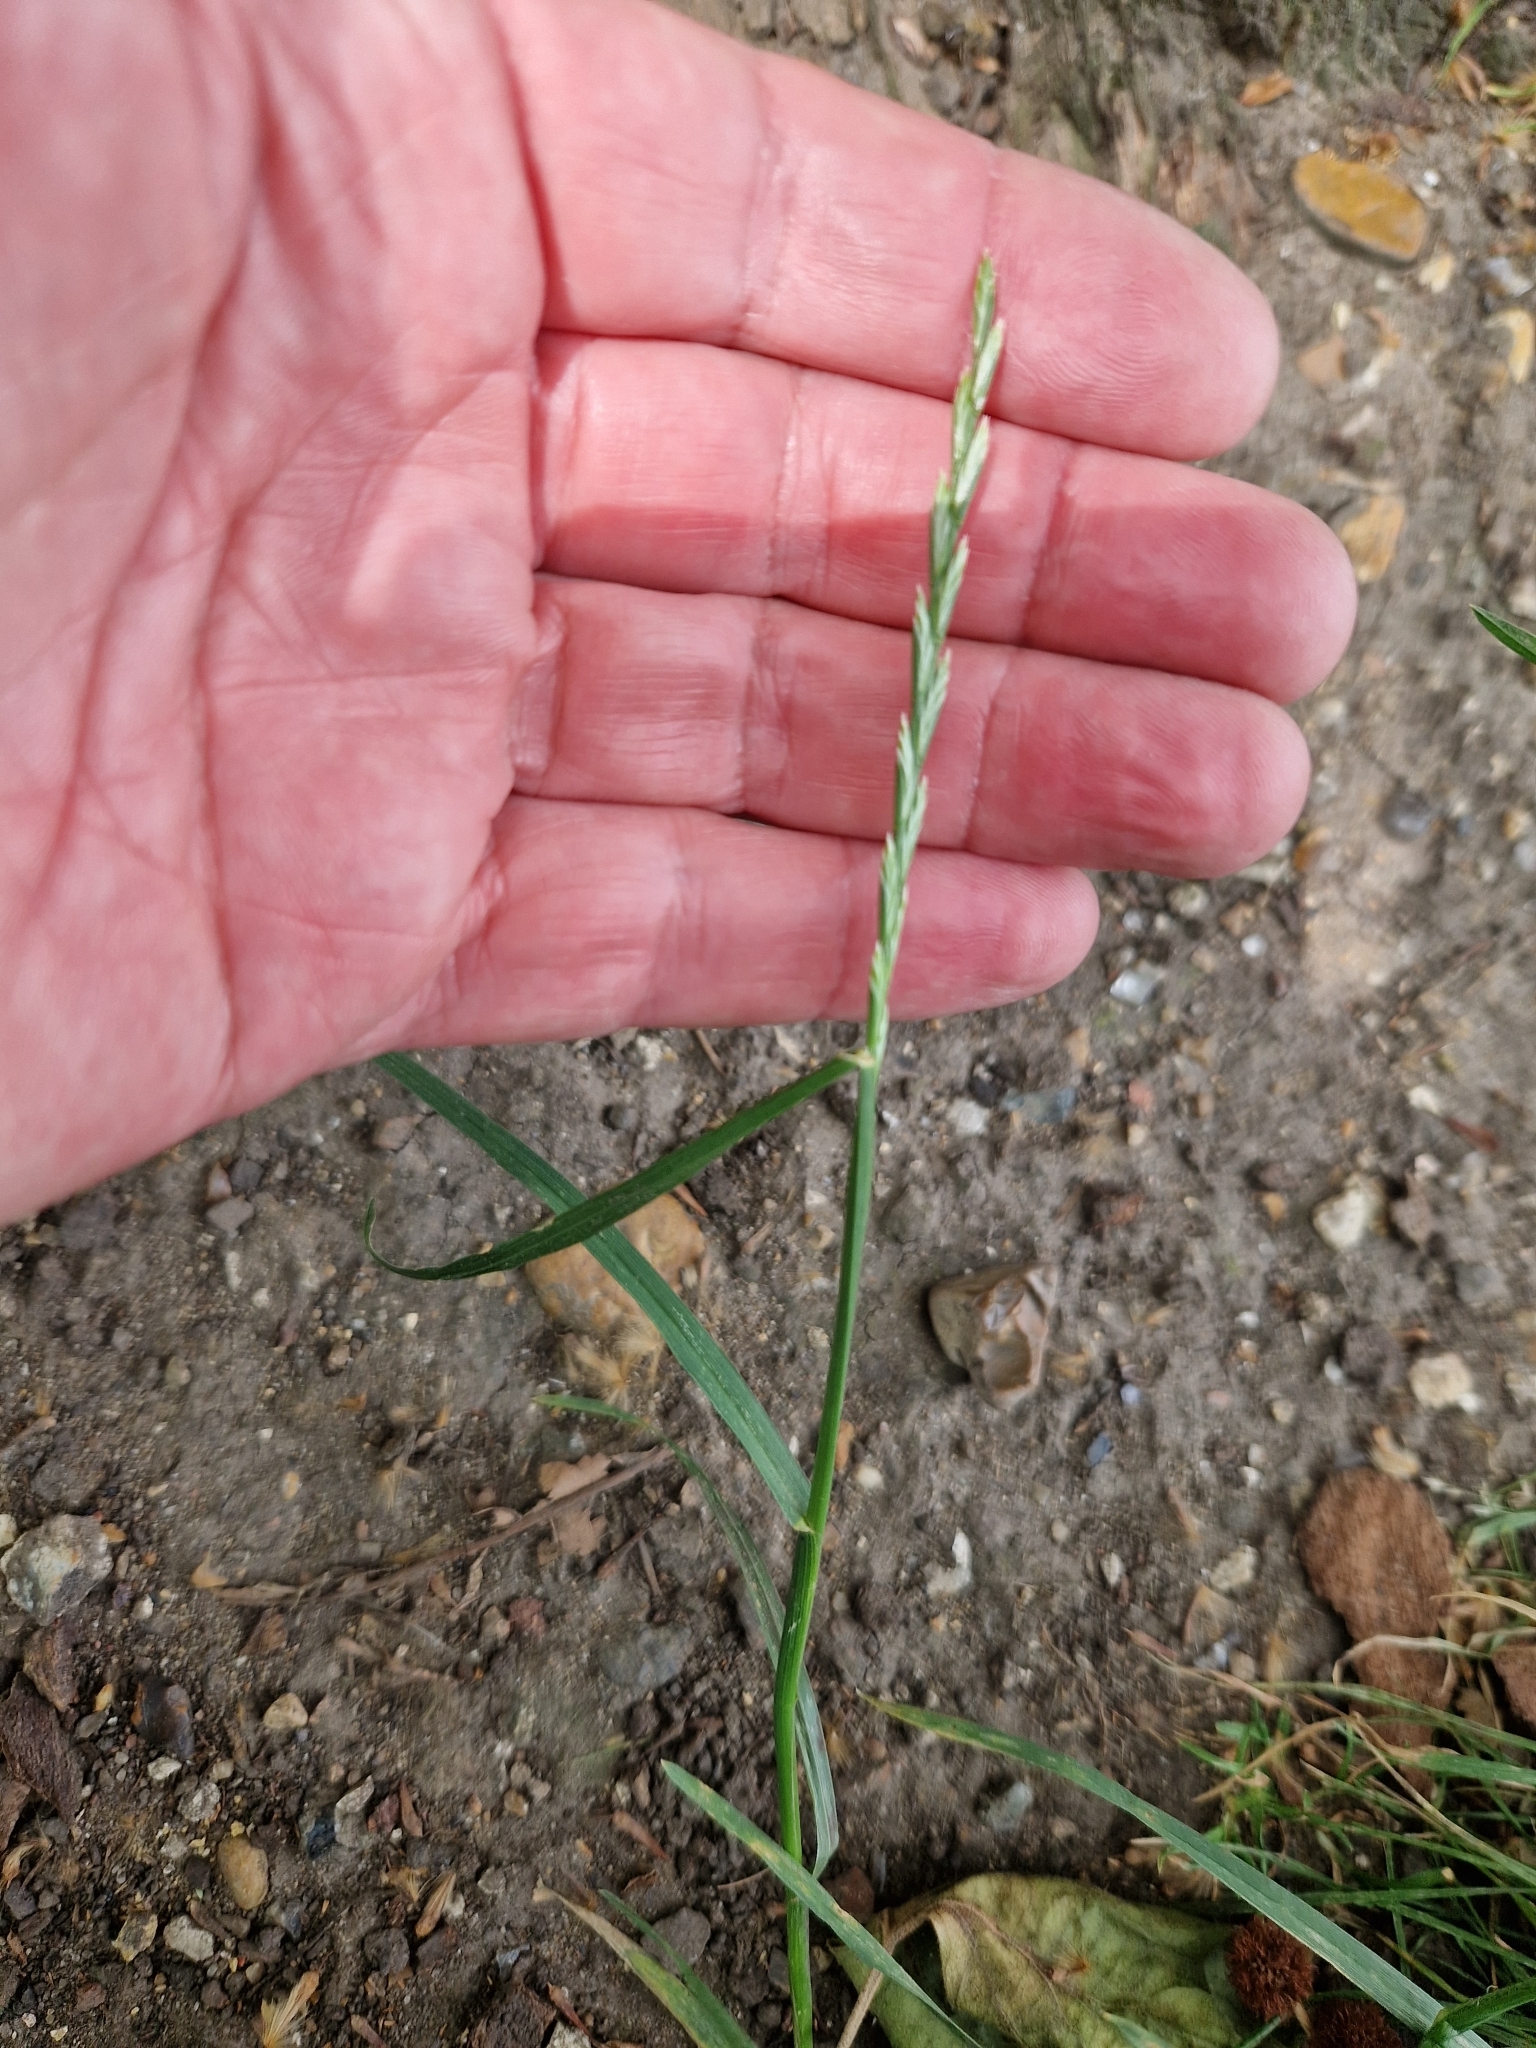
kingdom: Plantae
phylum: Tracheophyta
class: Liliopsida
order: Poales
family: Poaceae
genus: Lolium
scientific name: Lolium perenne
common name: Perennial ryegrass
